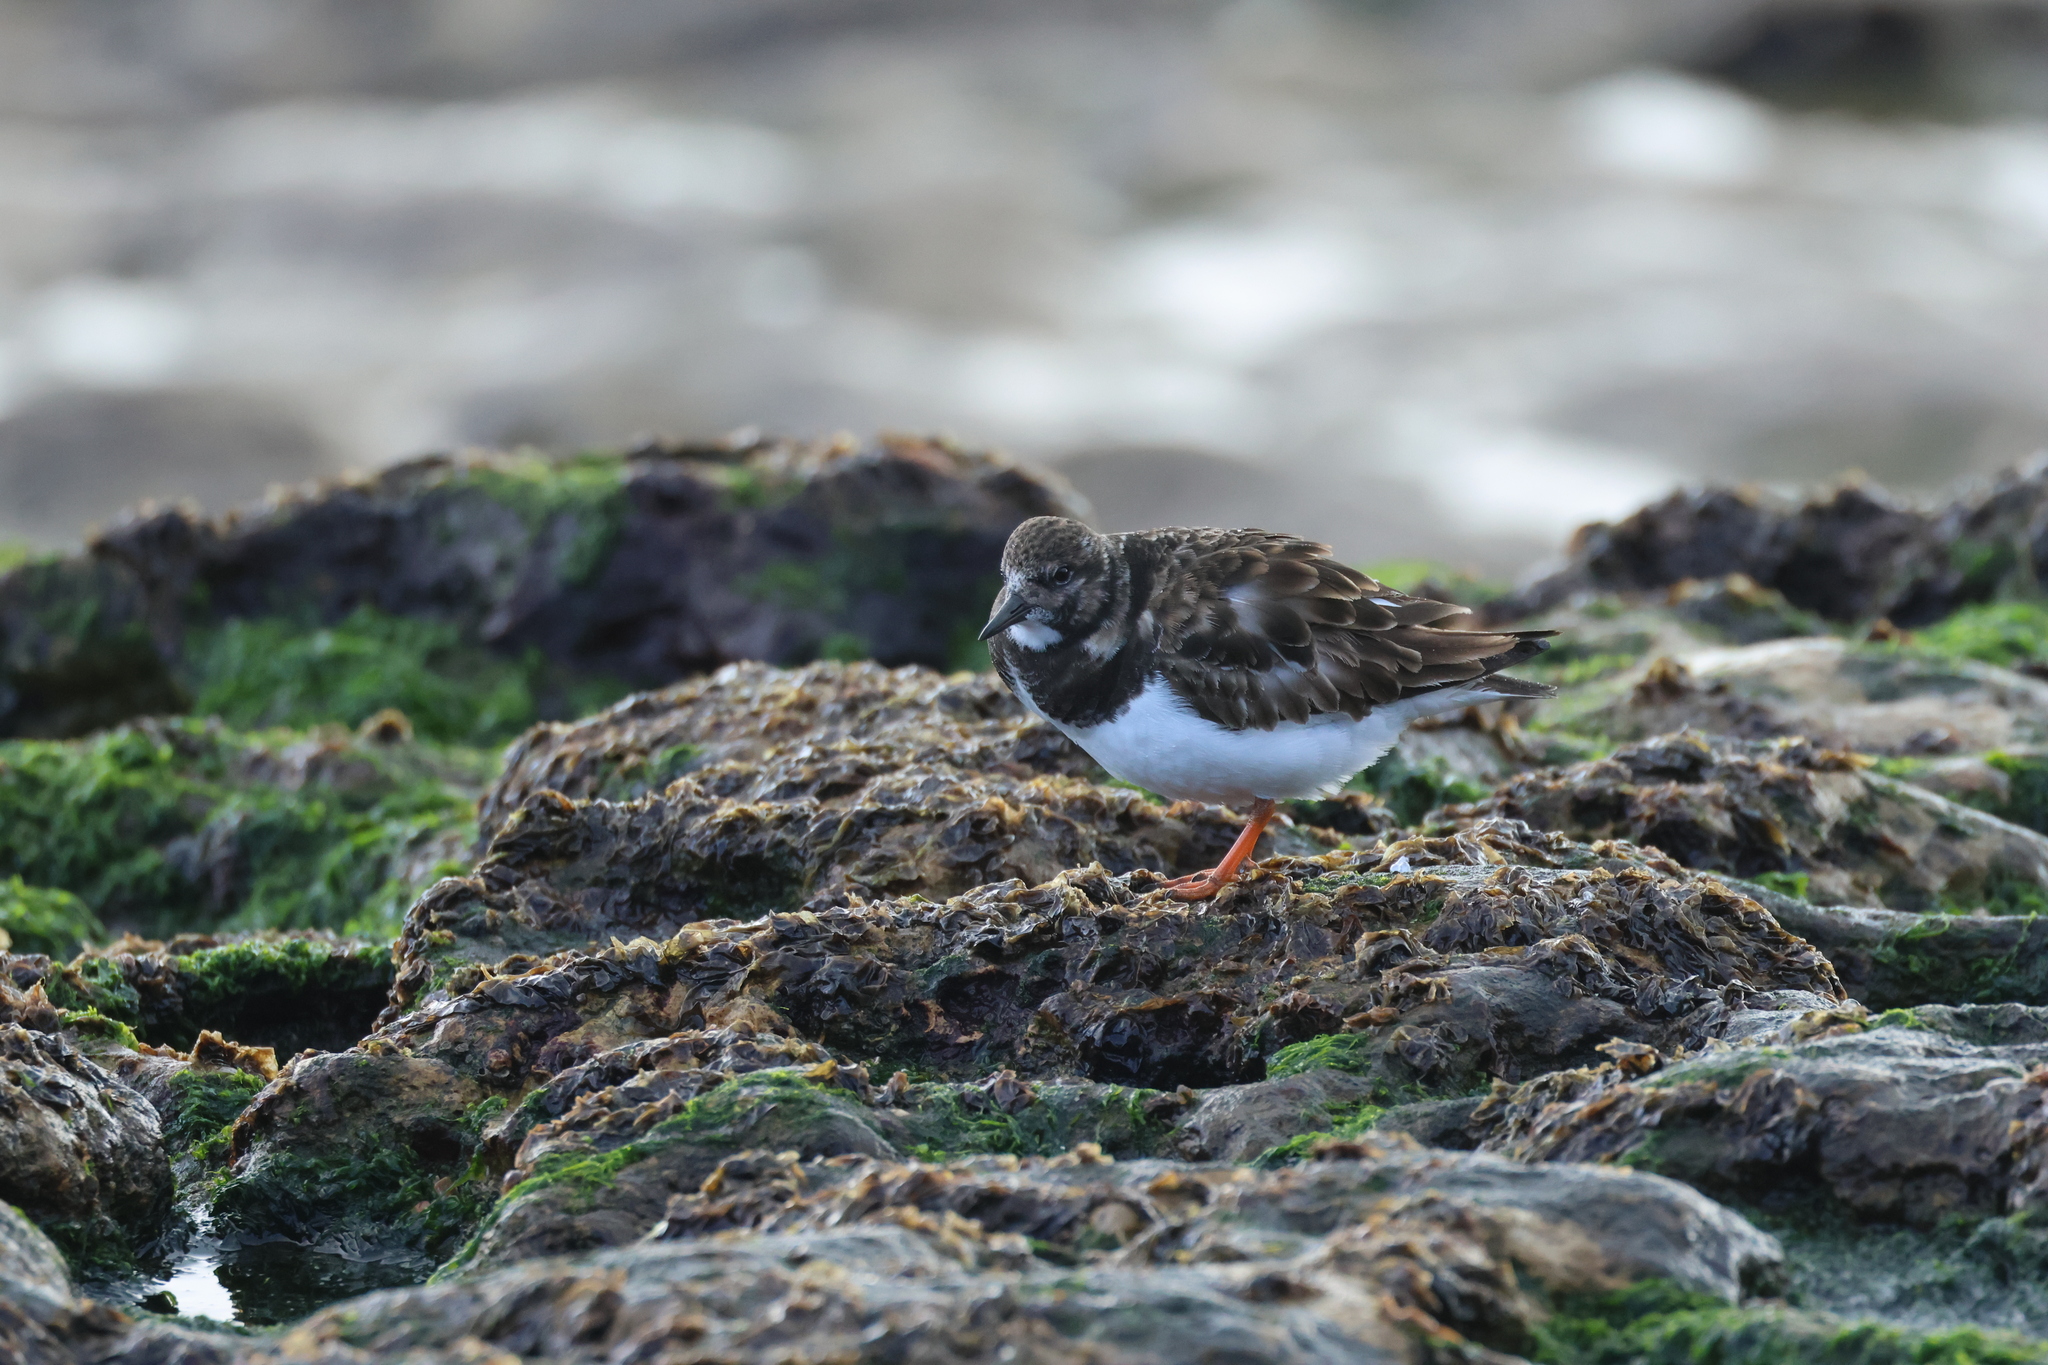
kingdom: Animalia
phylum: Chordata
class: Aves
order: Charadriiformes
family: Scolopacidae
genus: Arenaria
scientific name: Arenaria interpres
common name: Ruddy turnstone
